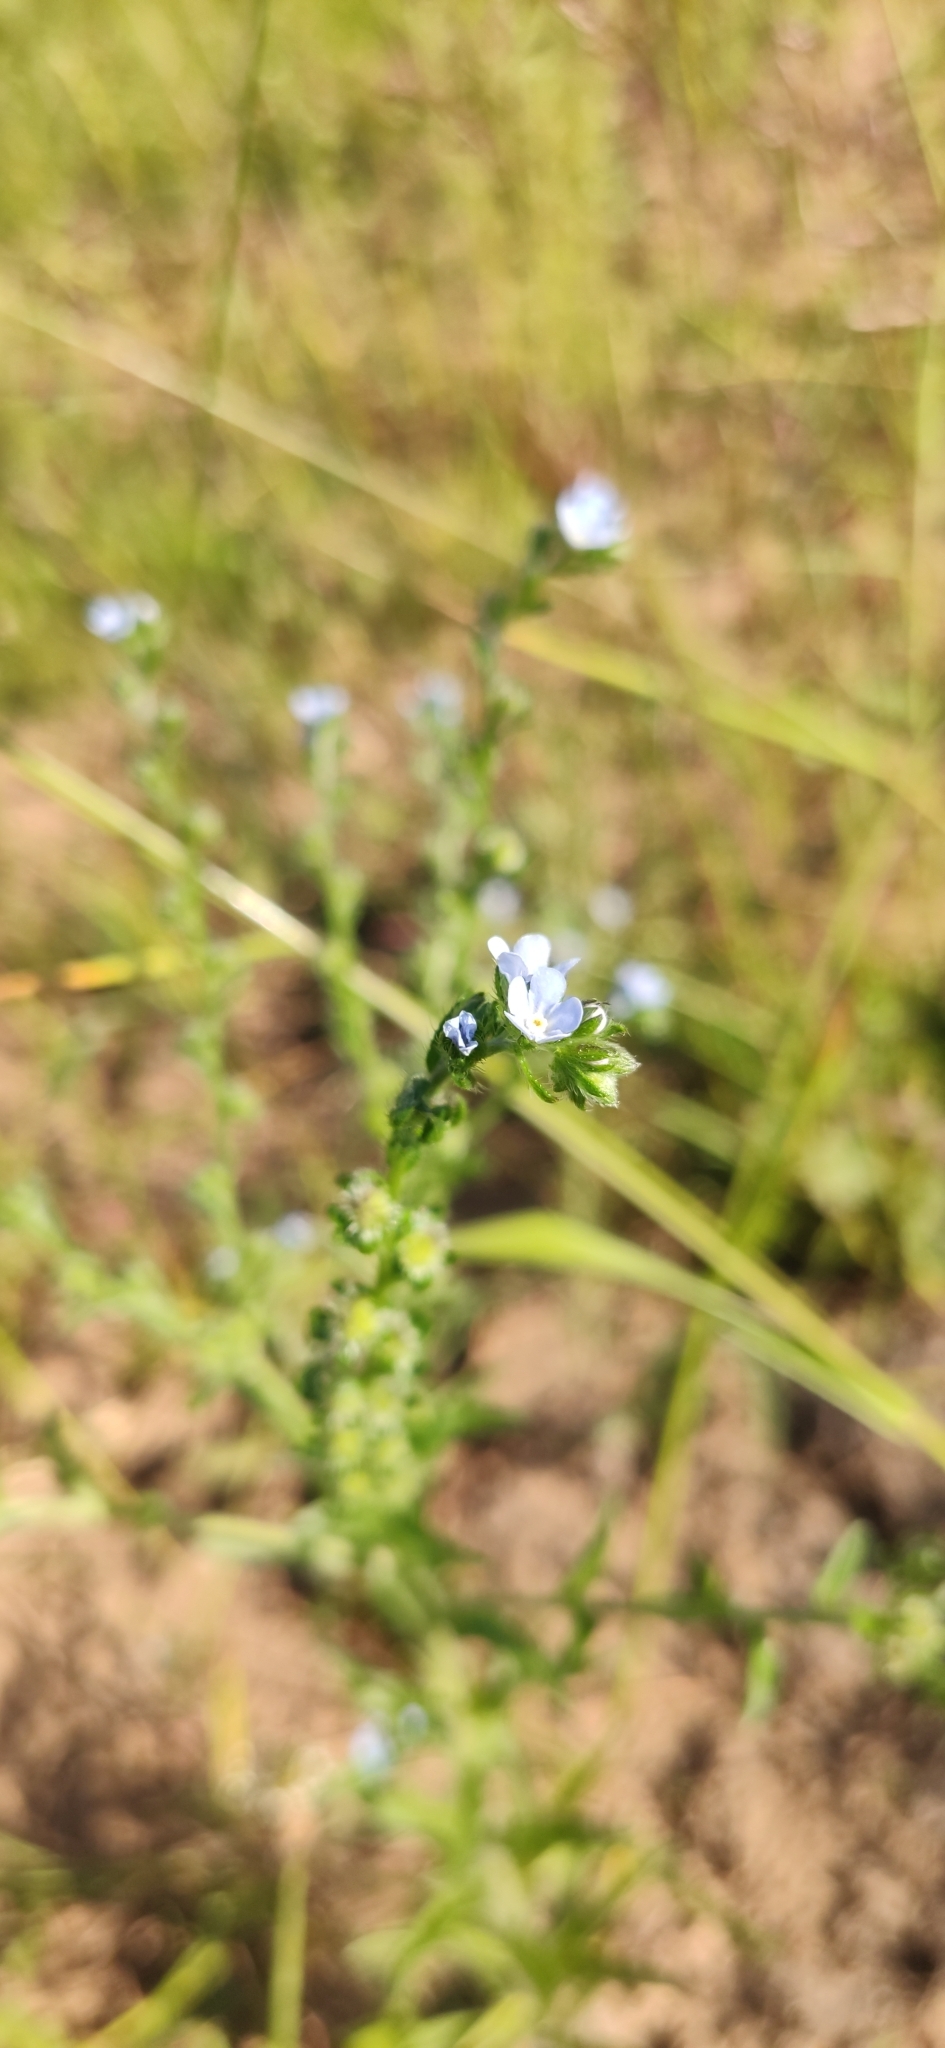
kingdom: Plantae
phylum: Tracheophyta
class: Magnoliopsida
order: Boraginales
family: Boraginaceae
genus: Lappula
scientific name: Lappula squarrosa
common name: European stickseed
